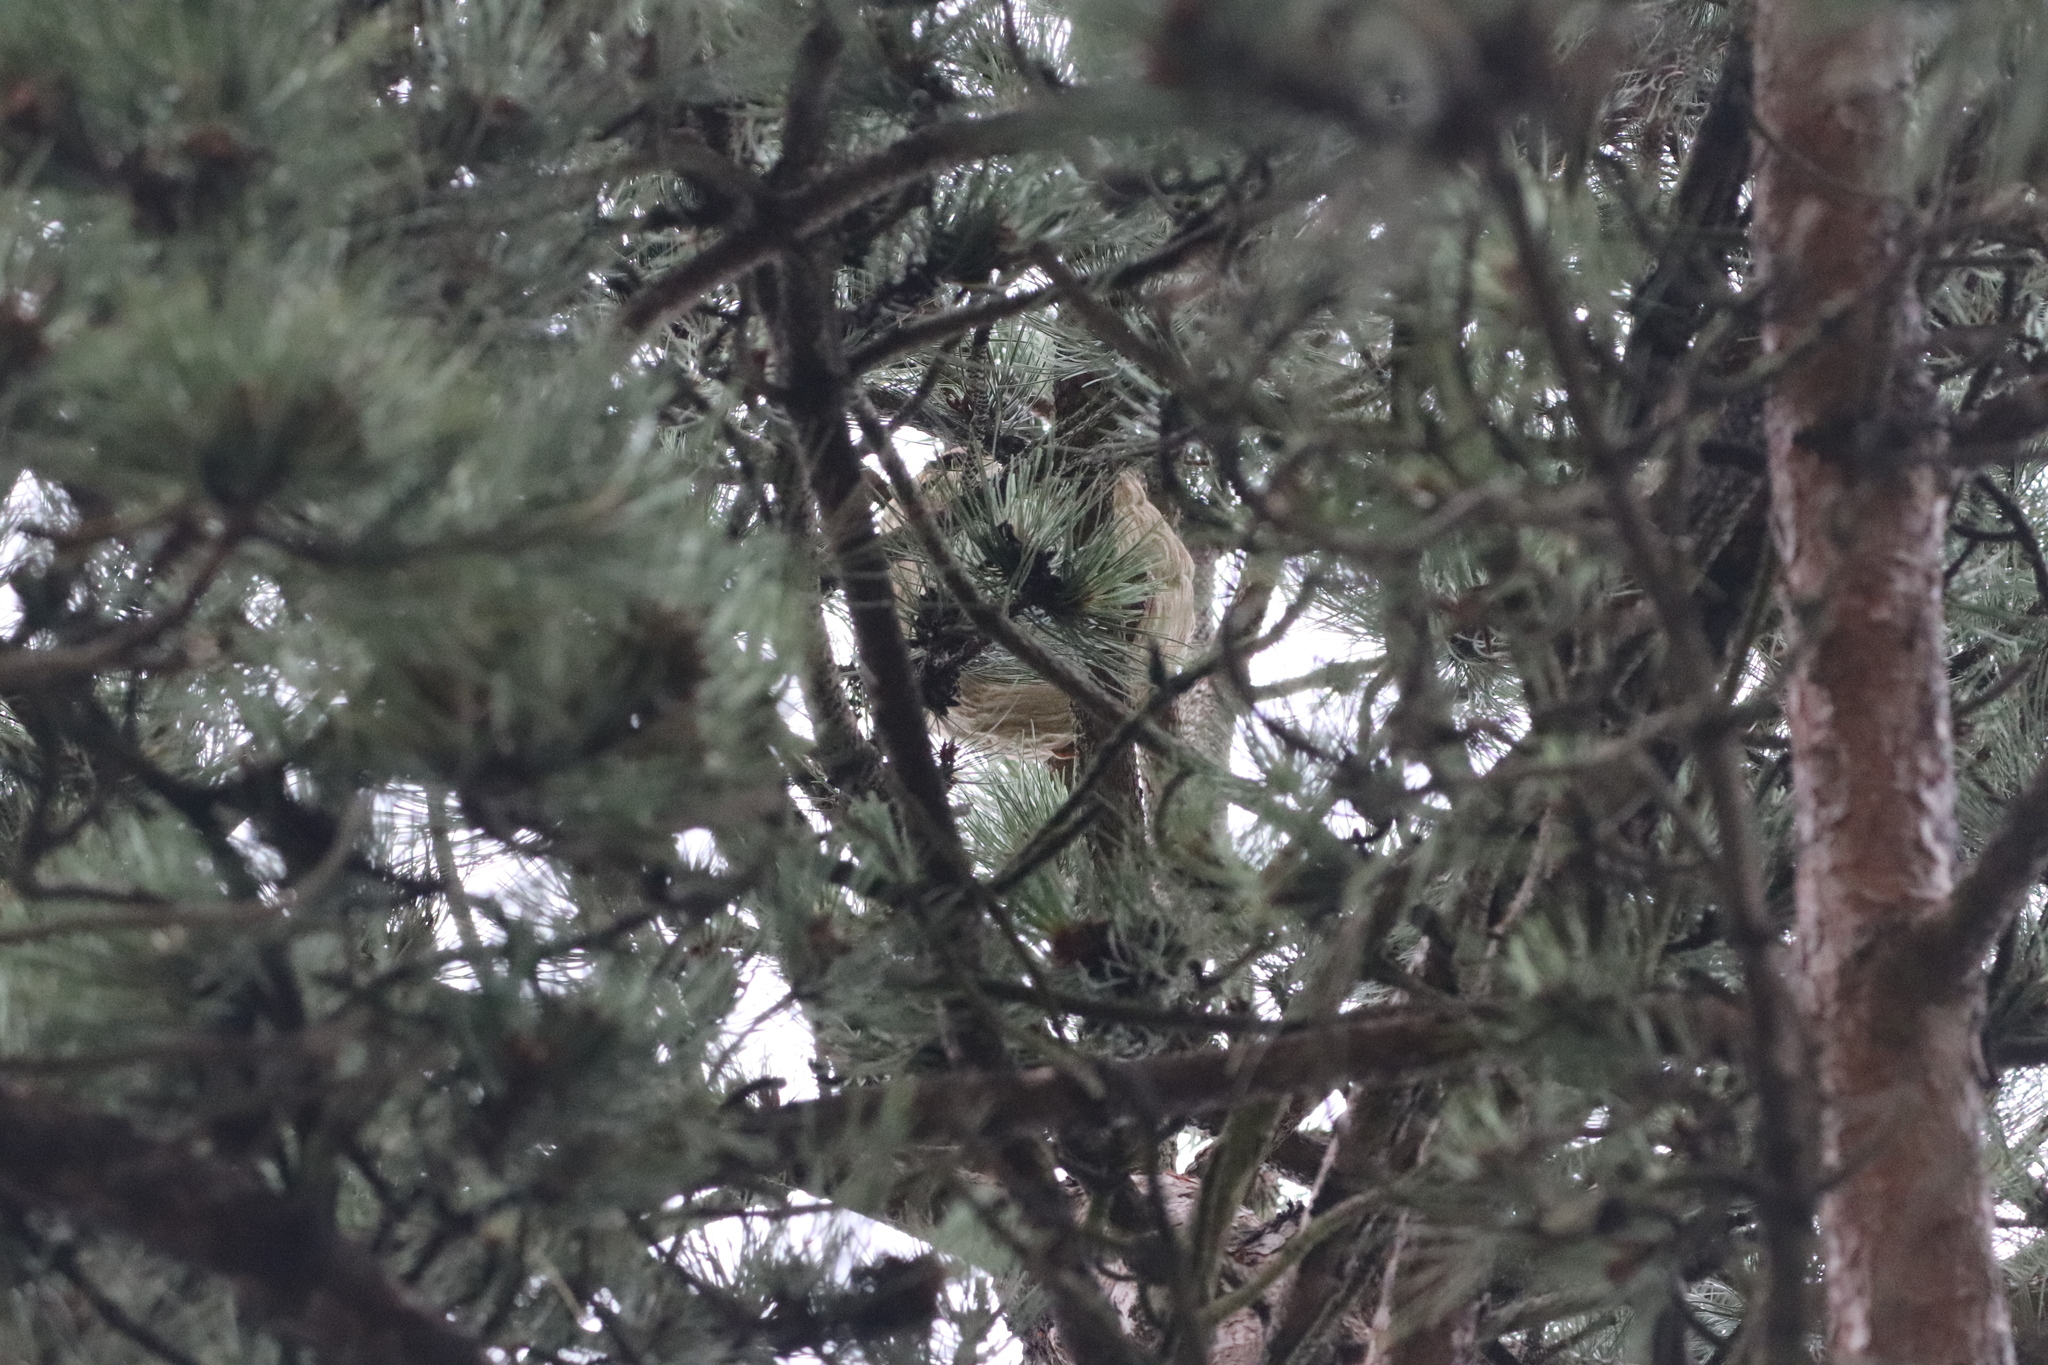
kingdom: Animalia
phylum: Arthropoda
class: Insecta
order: Hymenoptera
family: Vespidae
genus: Vespa
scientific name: Vespa velutina
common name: Asian hornet
